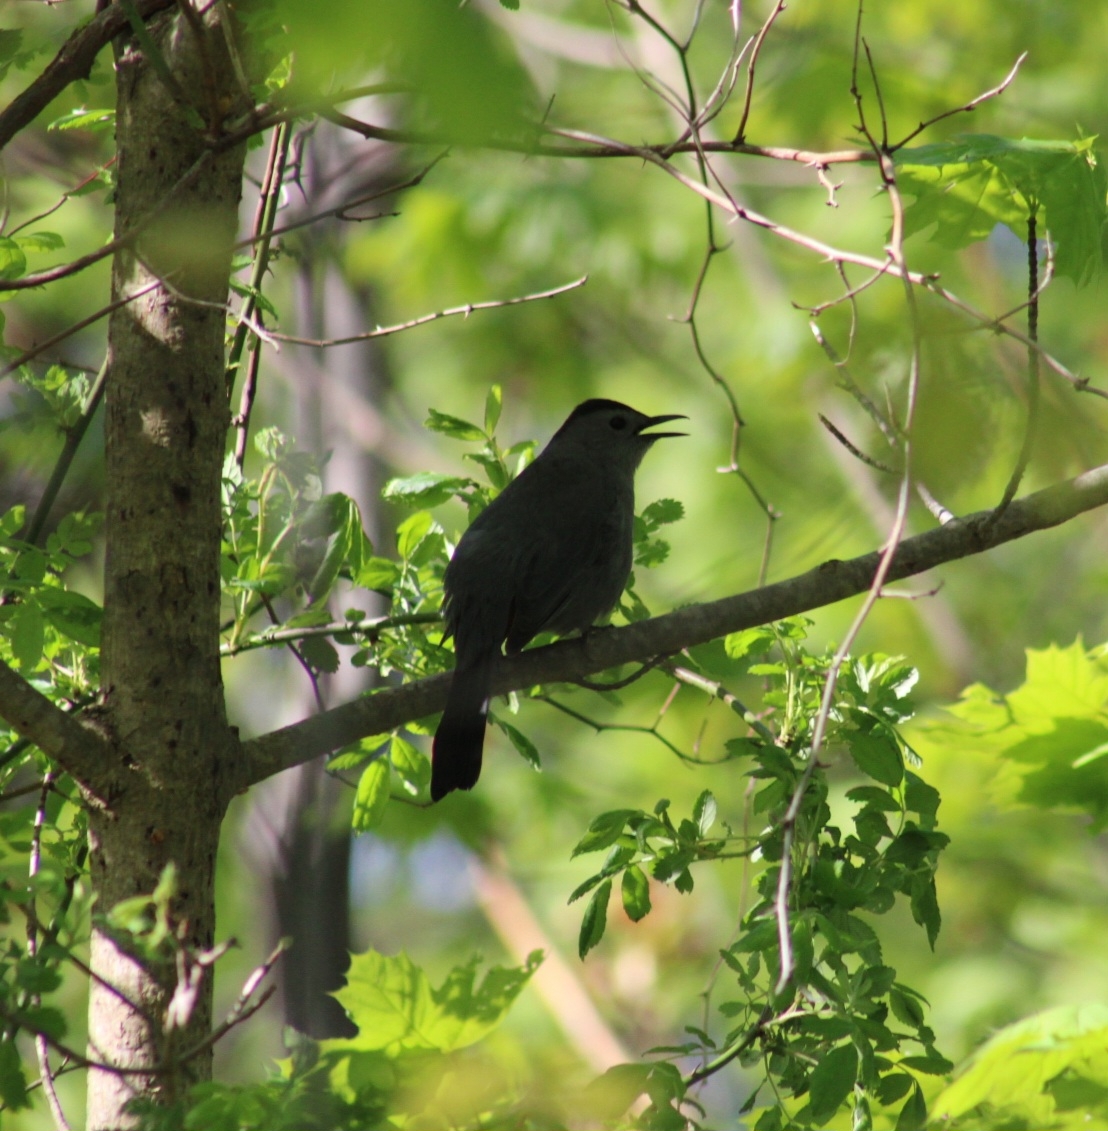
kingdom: Animalia
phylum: Chordata
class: Aves
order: Passeriformes
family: Mimidae
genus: Dumetella
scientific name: Dumetella carolinensis
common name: Gray catbird
